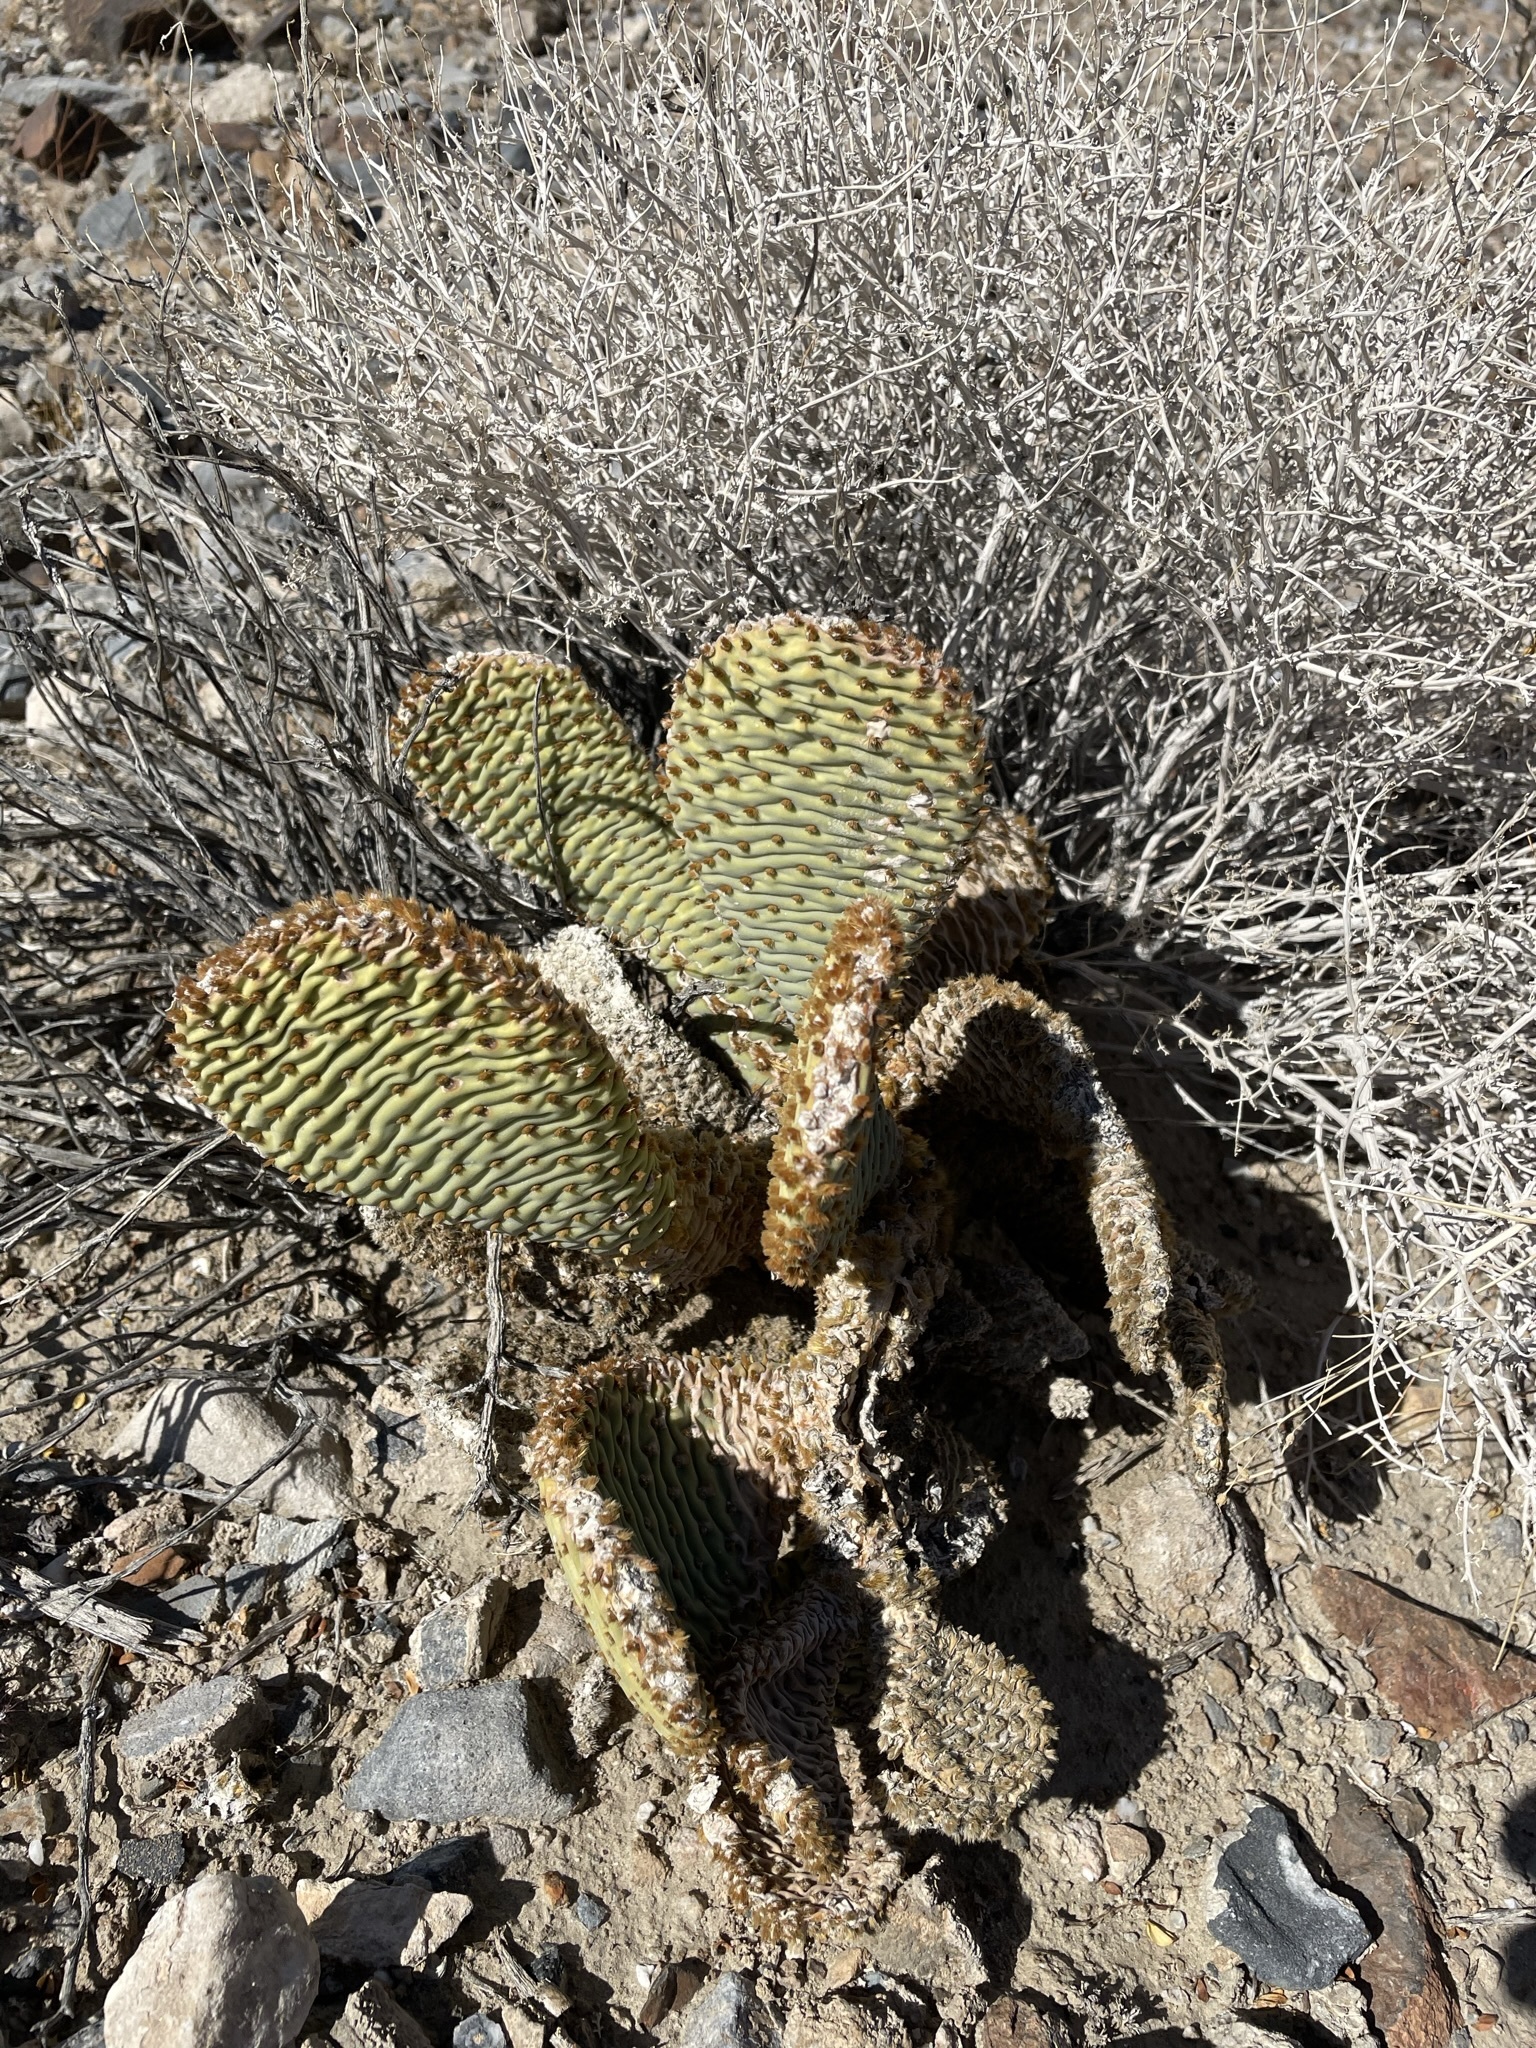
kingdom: Plantae
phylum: Tracheophyta
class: Magnoliopsida
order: Caryophyllales
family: Cactaceae
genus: Opuntia
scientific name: Opuntia basilaris
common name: Beavertail prickly-pear
